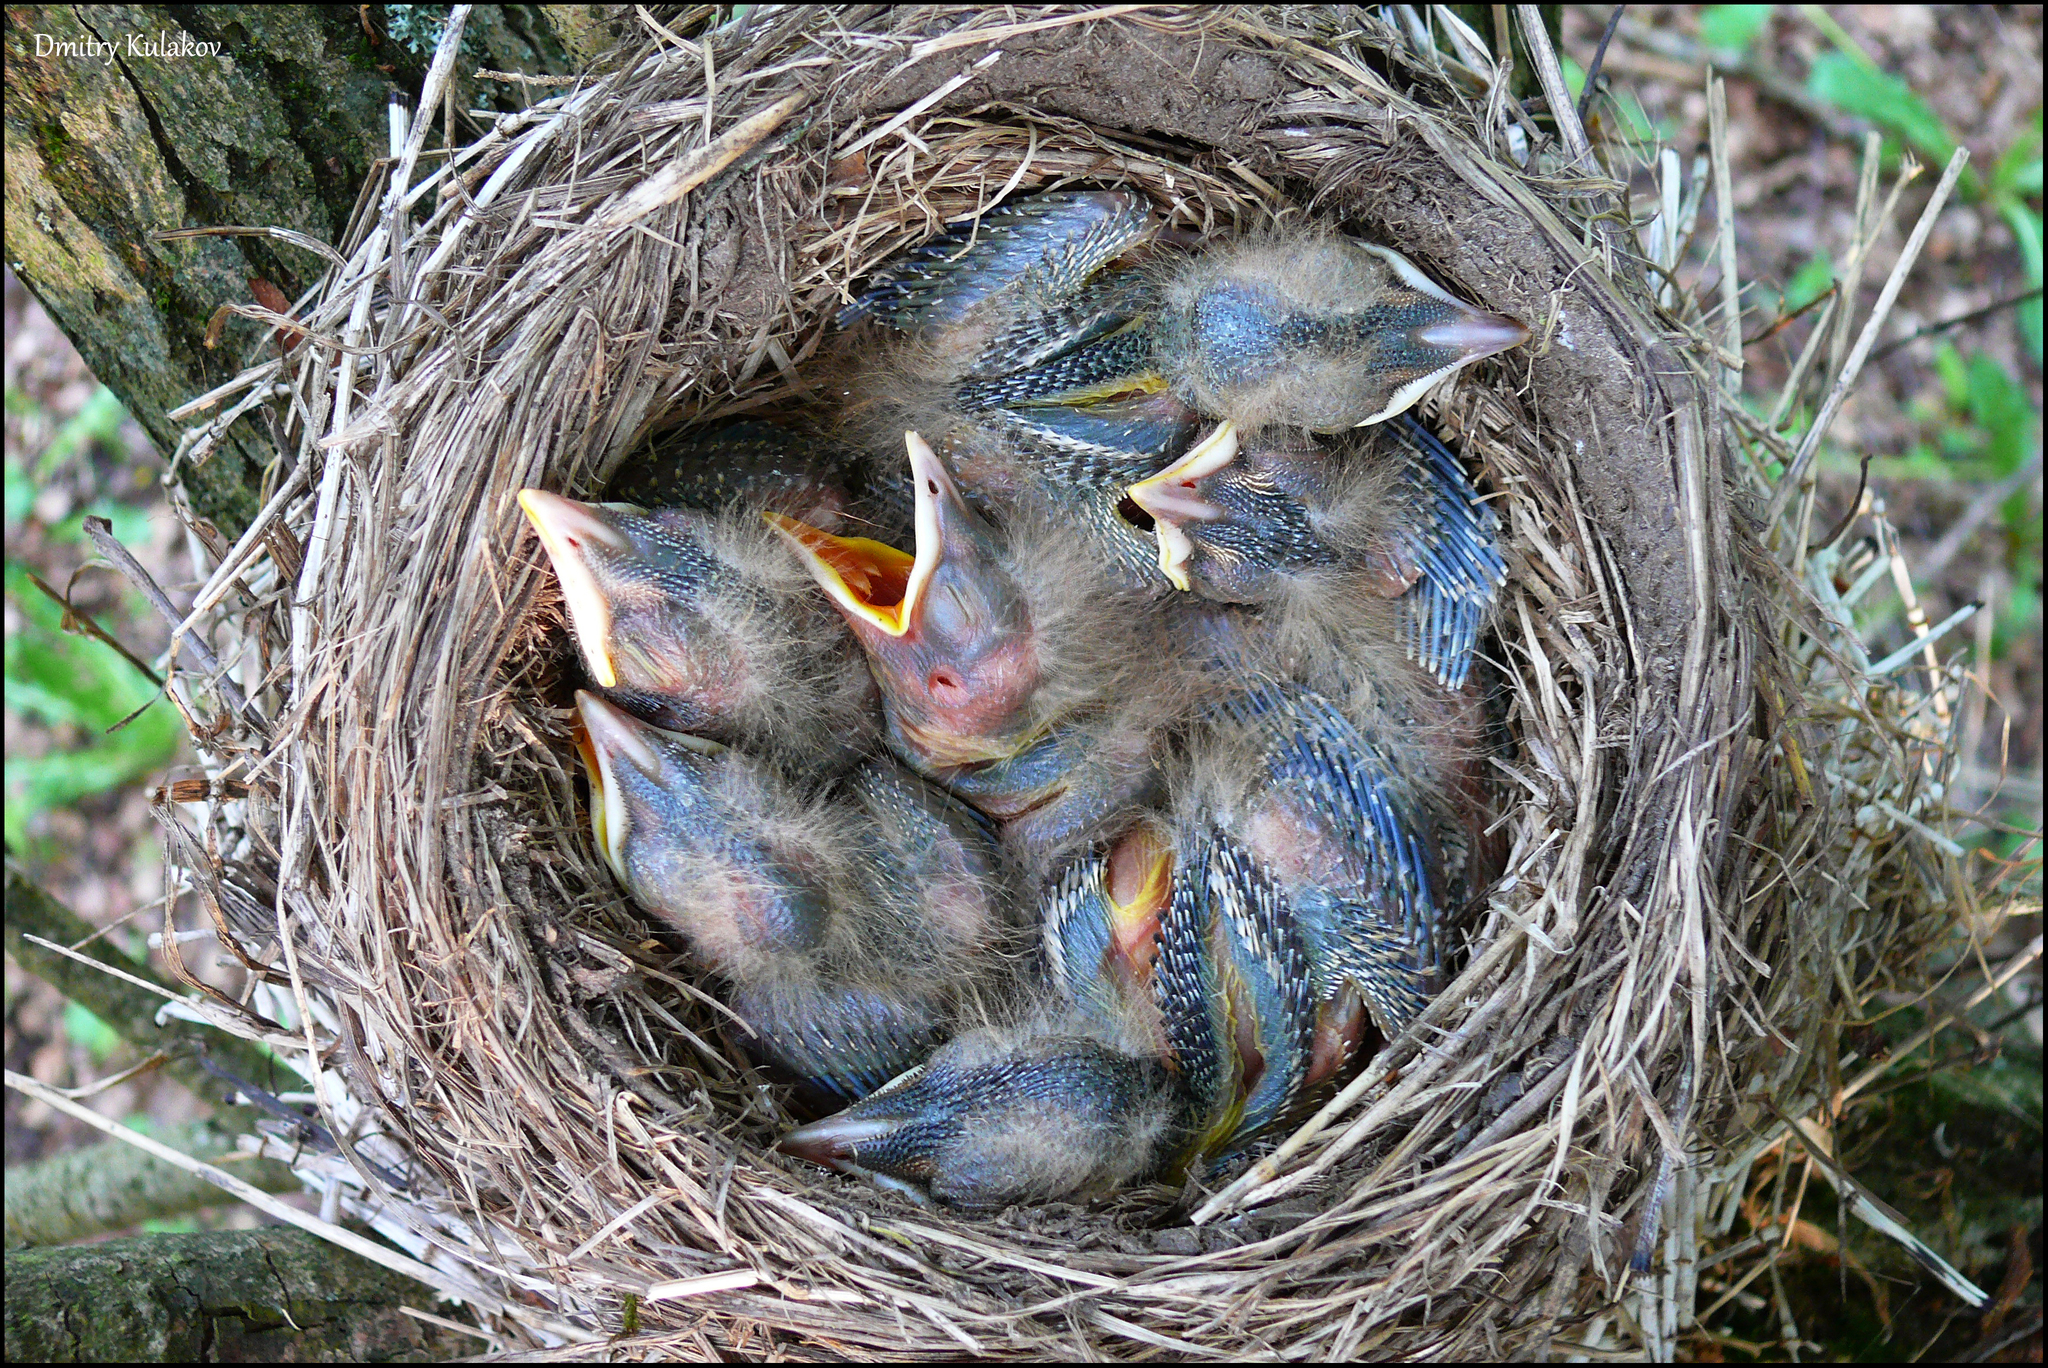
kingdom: Animalia
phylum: Chordata
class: Aves
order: Passeriformes
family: Turdidae
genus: Turdus
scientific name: Turdus pilaris
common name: Fieldfare
